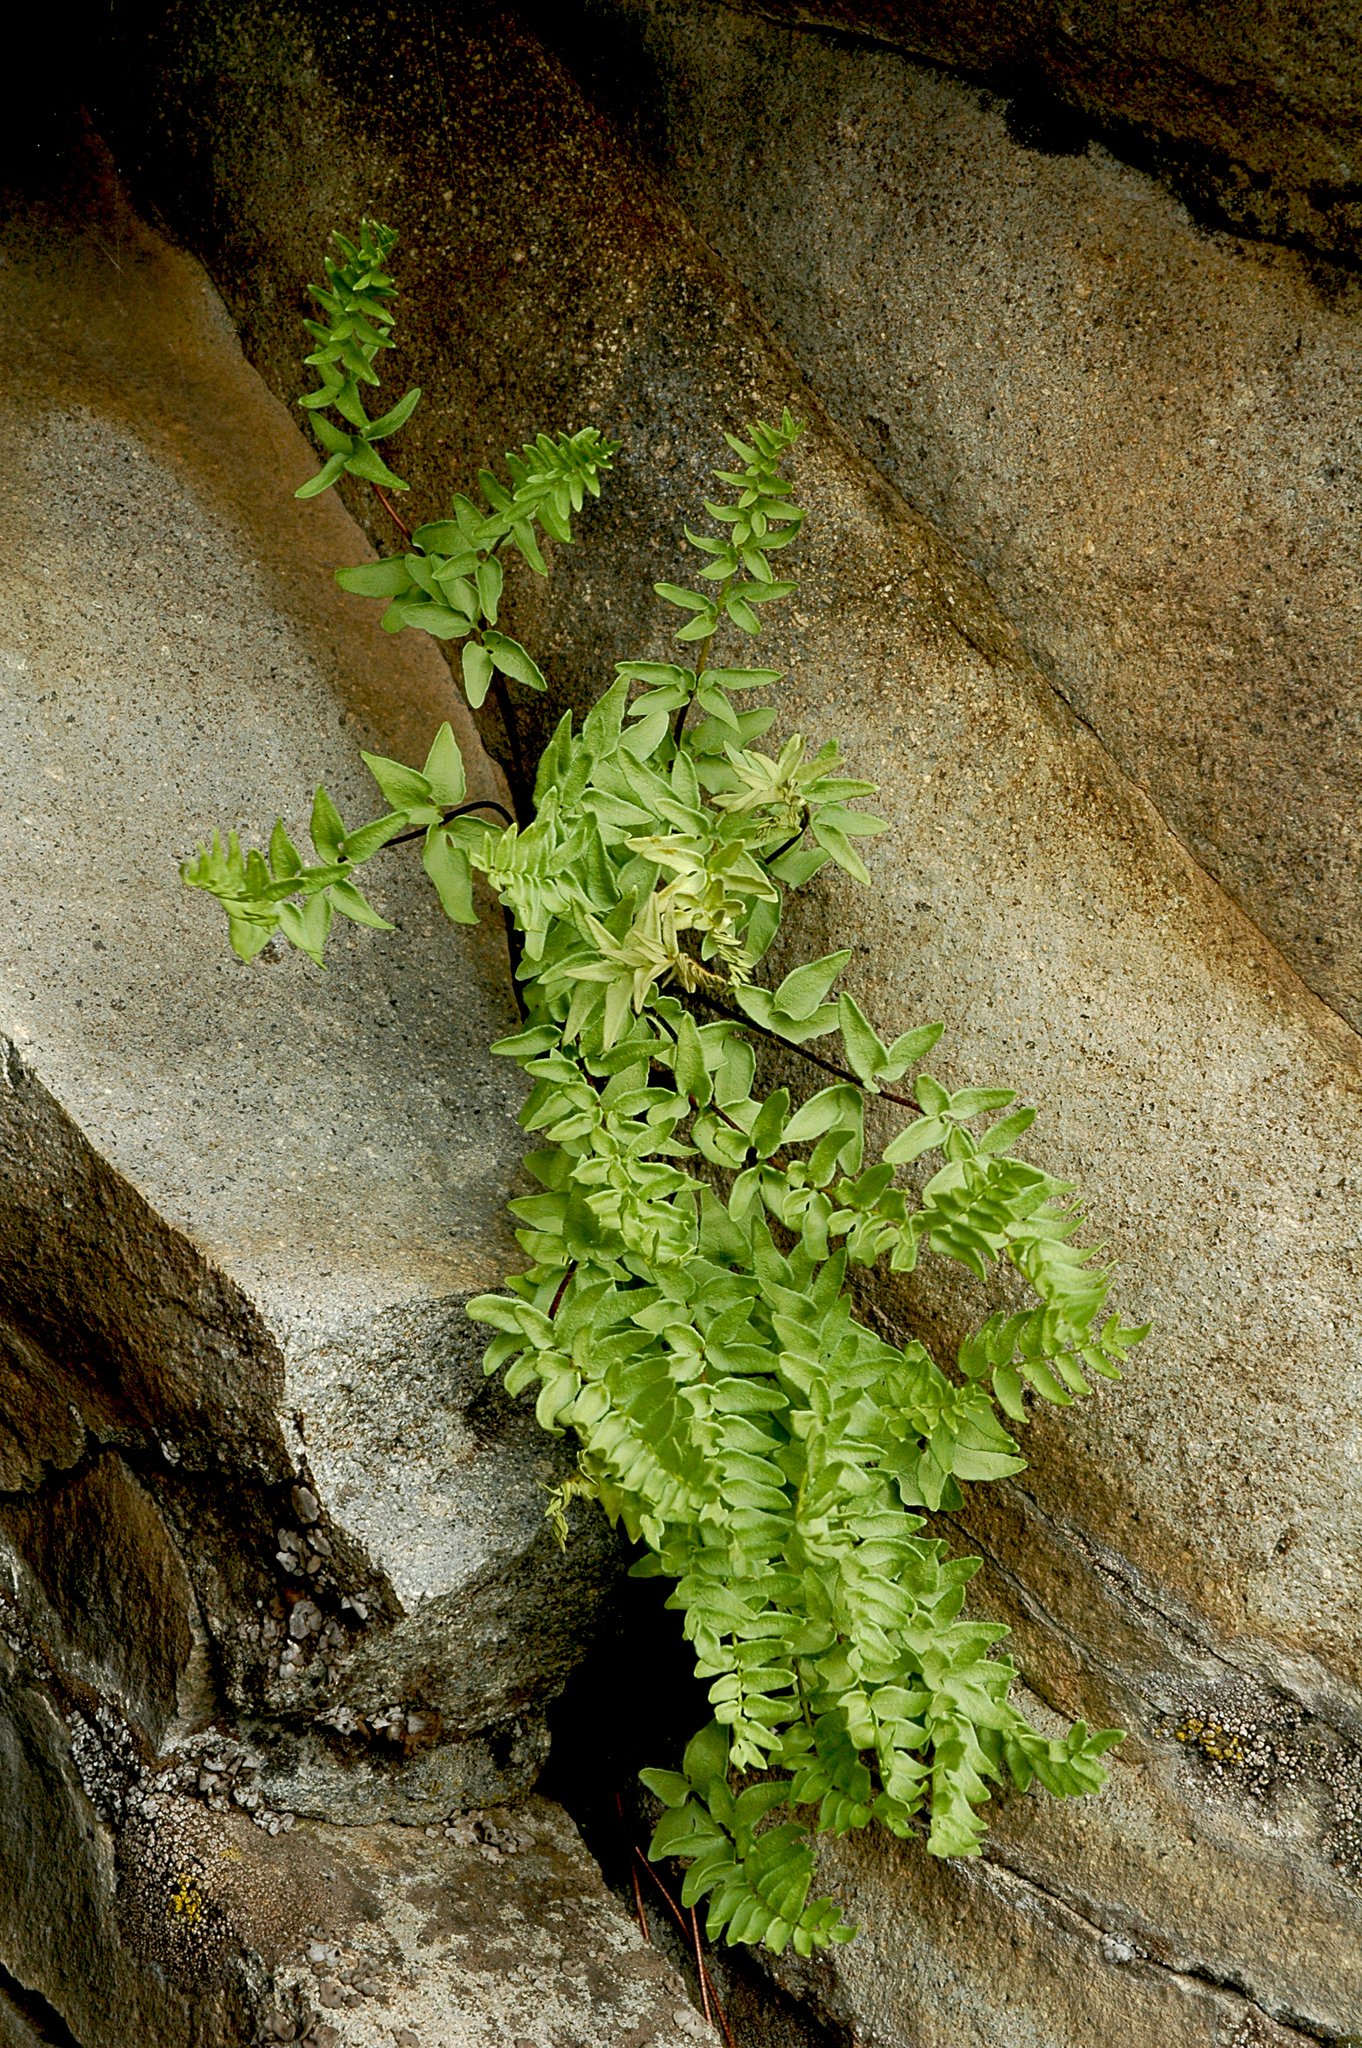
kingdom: Plantae
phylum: Tracheophyta
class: Polypodiopsida
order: Polypodiales
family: Pteridaceae
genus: Pellaea
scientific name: Pellaea breweri
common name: Brewer's cliffbrake
